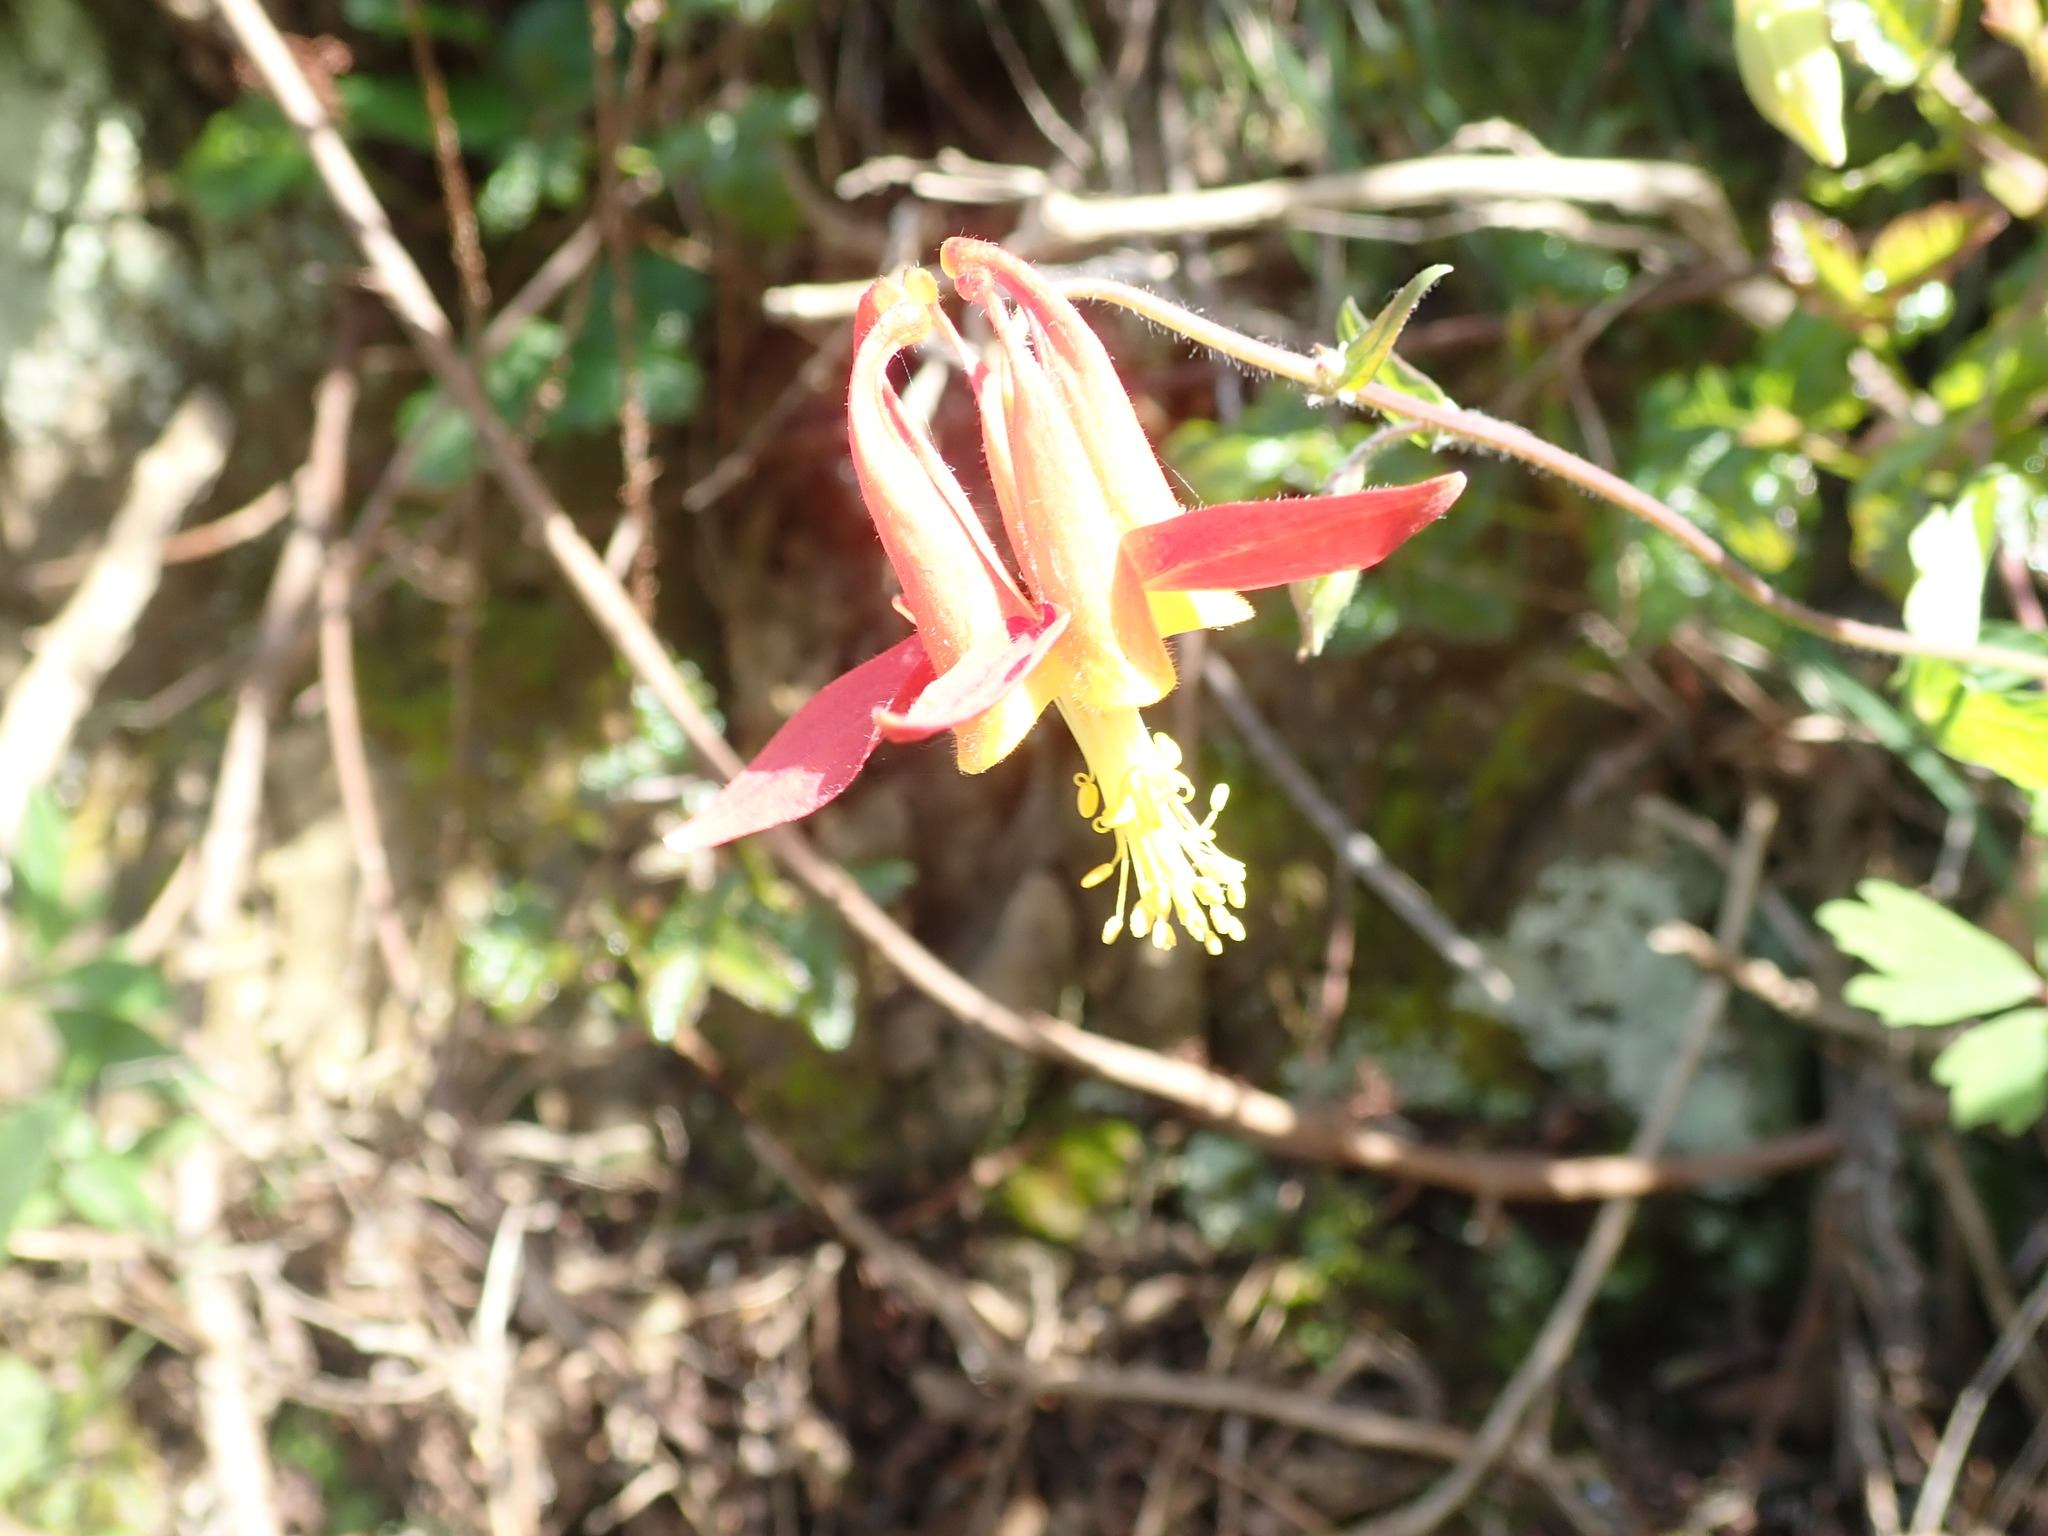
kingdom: Plantae
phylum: Tracheophyta
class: Magnoliopsida
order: Ranunculales
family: Ranunculaceae
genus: Aquilegia
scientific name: Aquilegia formosa
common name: Sitka columbine
